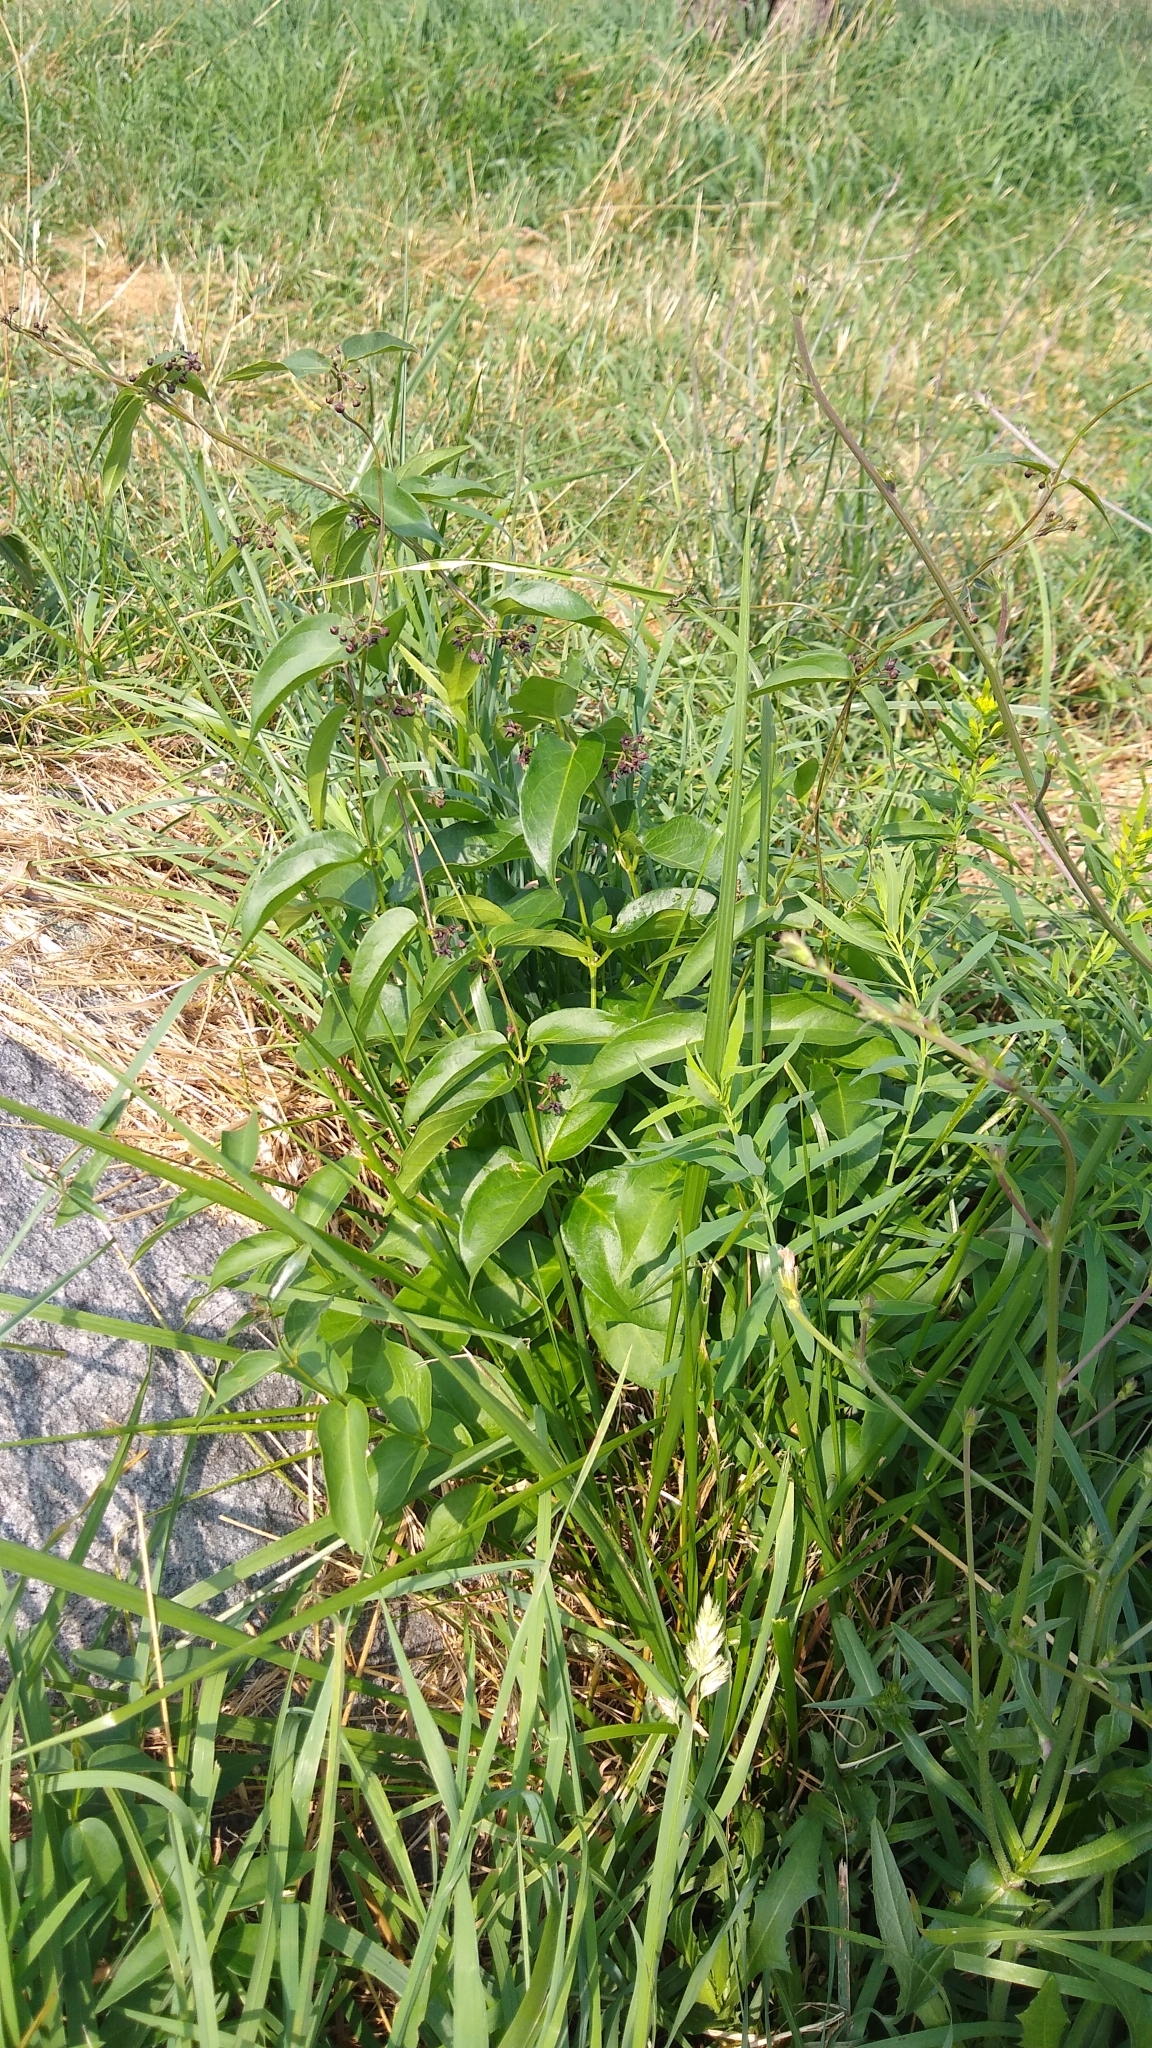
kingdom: Plantae
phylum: Tracheophyta
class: Magnoliopsida
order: Gentianales
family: Apocynaceae
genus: Vincetoxicum
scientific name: Vincetoxicum nigrum
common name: Black swallow-wort
